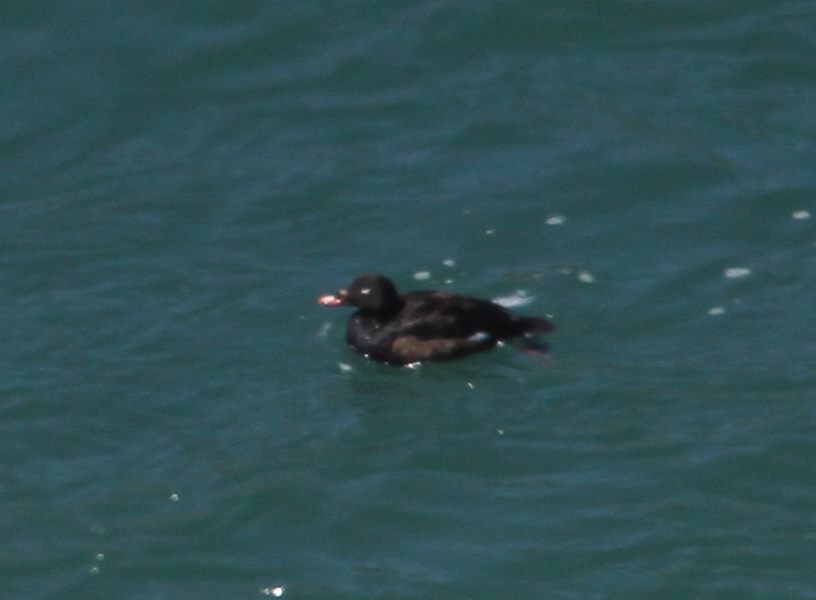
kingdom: Animalia
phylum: Chordata
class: Aves
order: Anseriformes
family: Anatidae
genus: Melanitta
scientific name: Melanitta deglandi
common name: White-winged scoter
